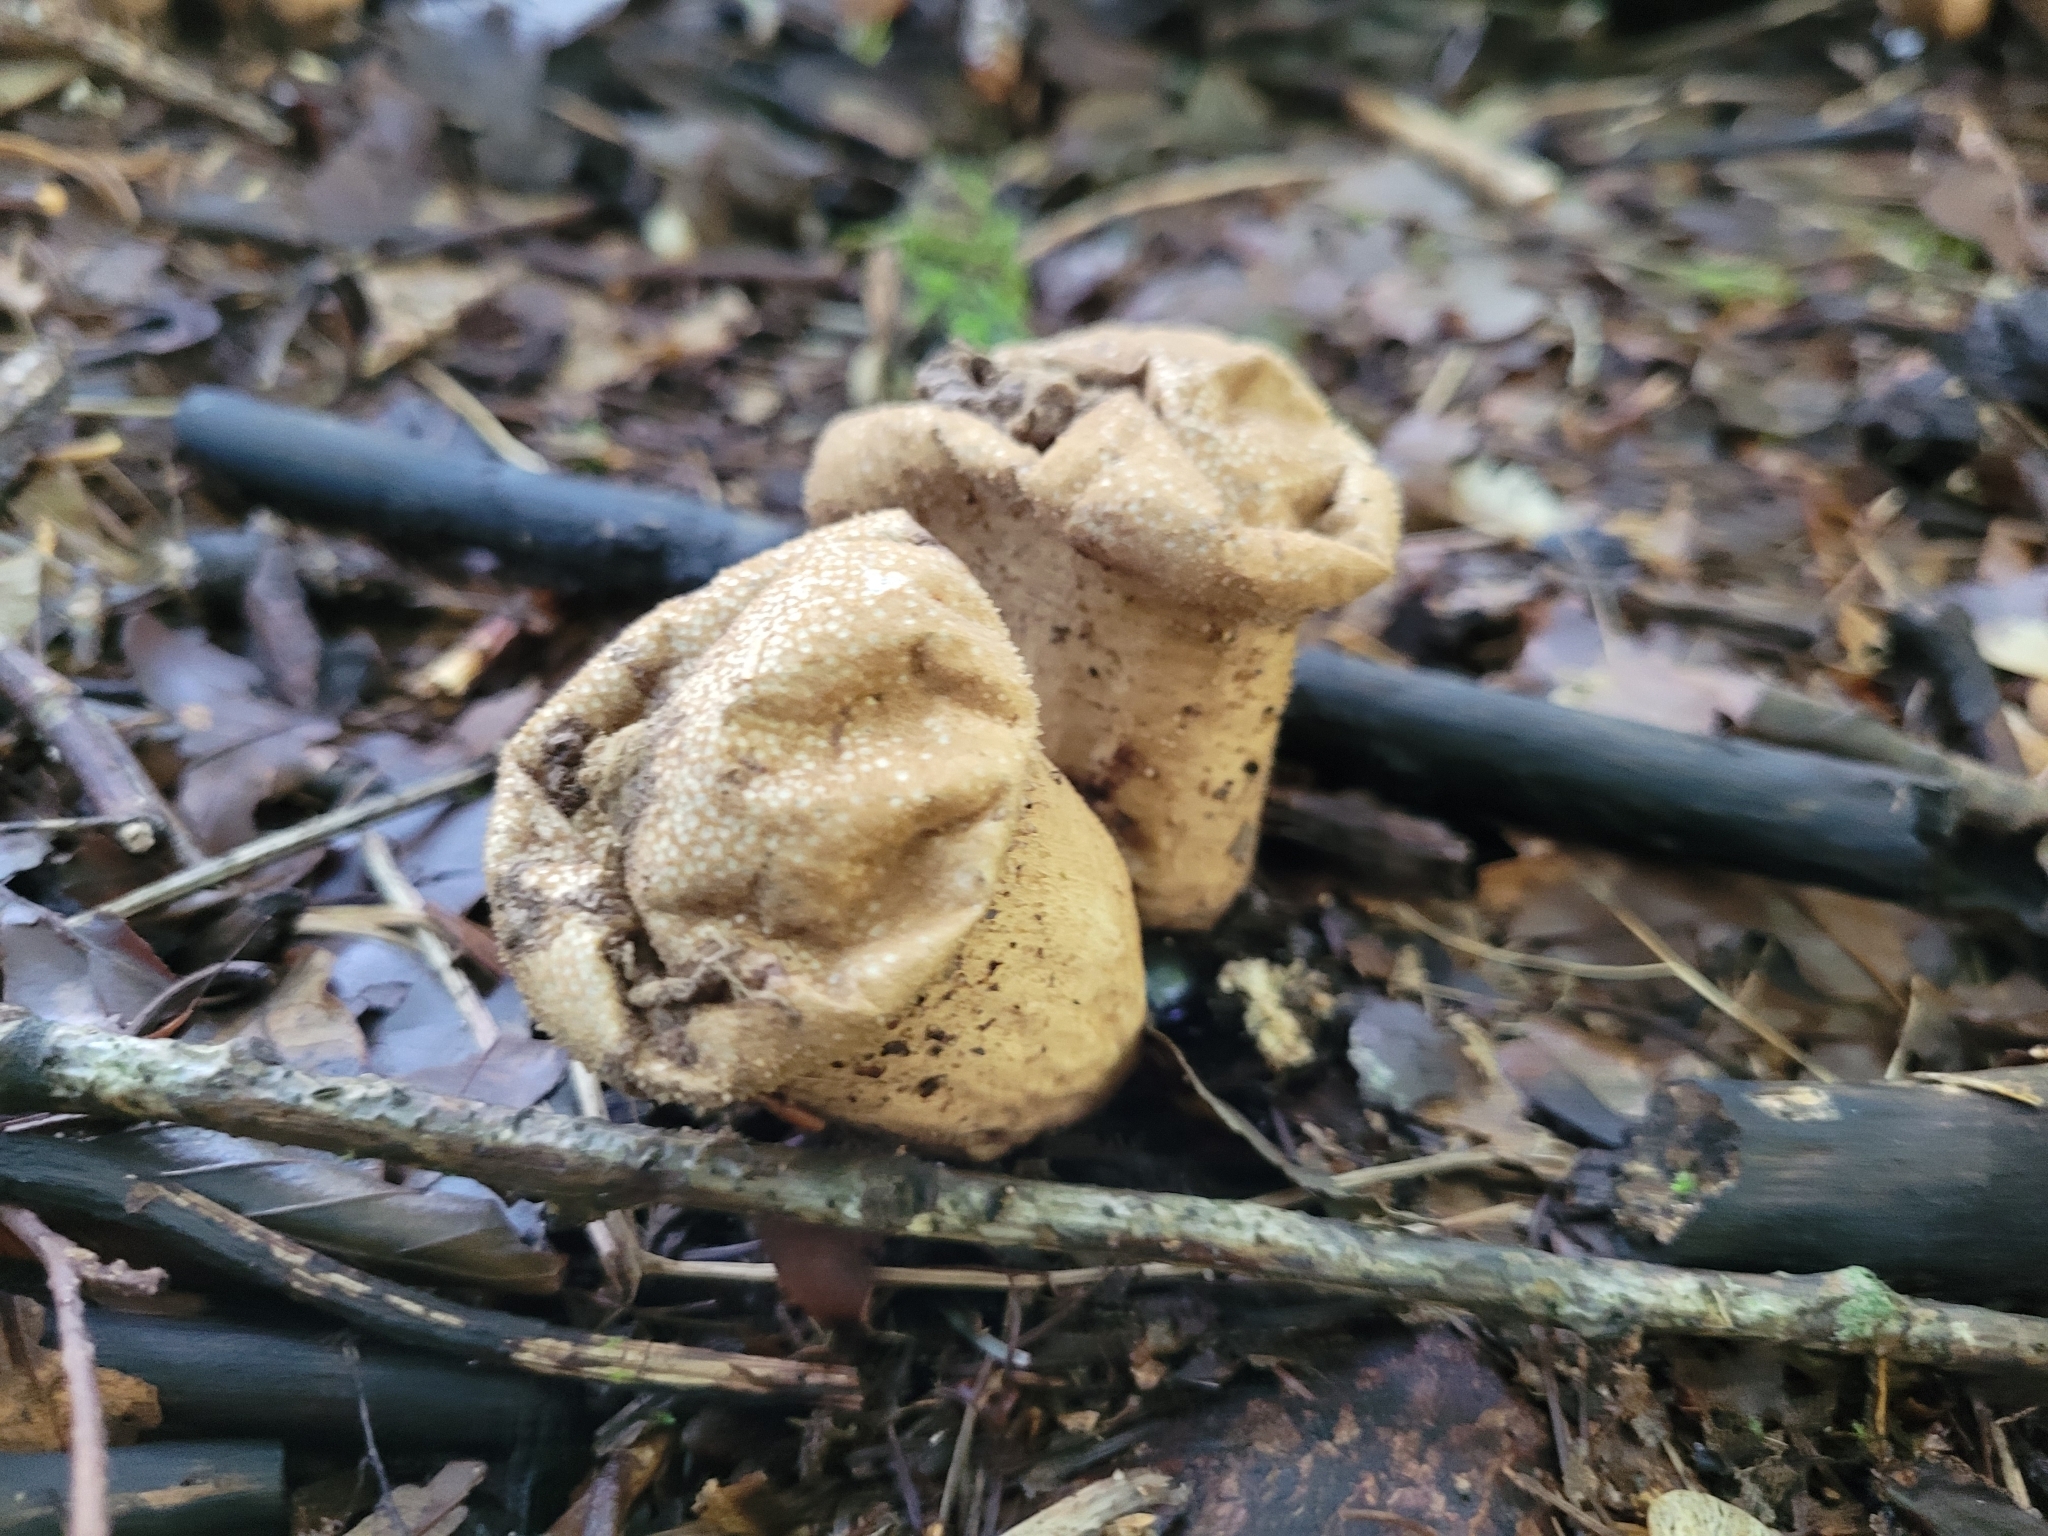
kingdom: Fungi
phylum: Basidiomycota
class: Agaricomycetes
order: Agaricales
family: Lycoperdaceae
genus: Lycoperdon
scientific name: Lycoperdon perlatum
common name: Common puffball
